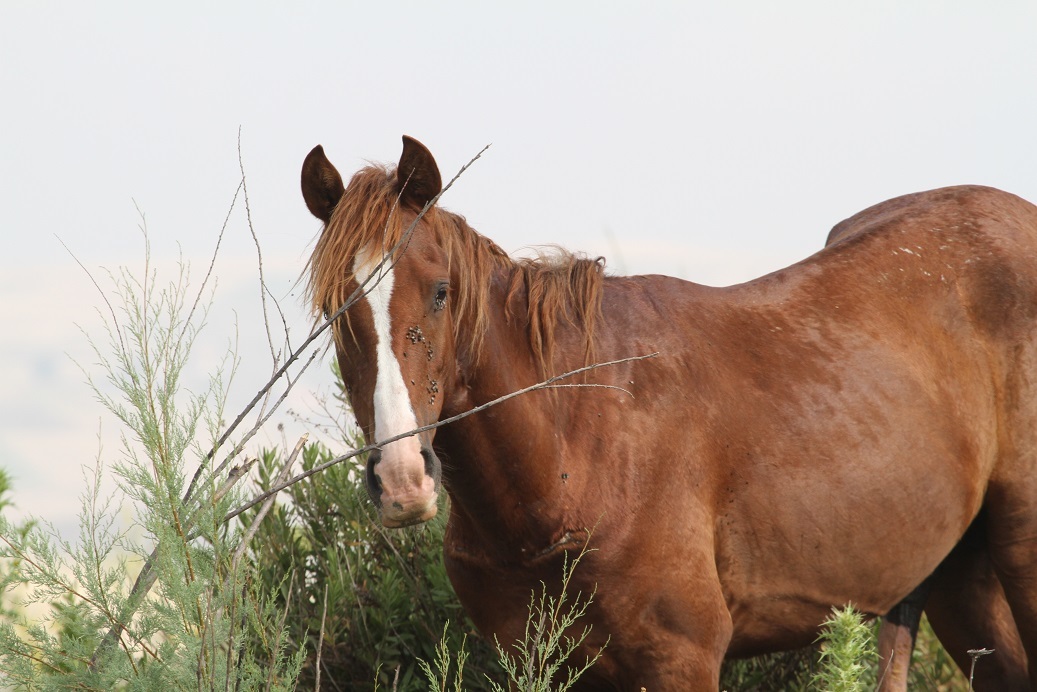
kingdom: Animalia
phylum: Chordata
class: Mammalia
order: Perissodactyla
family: Equidae
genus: Equus
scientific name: Equus caballus
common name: Horse
